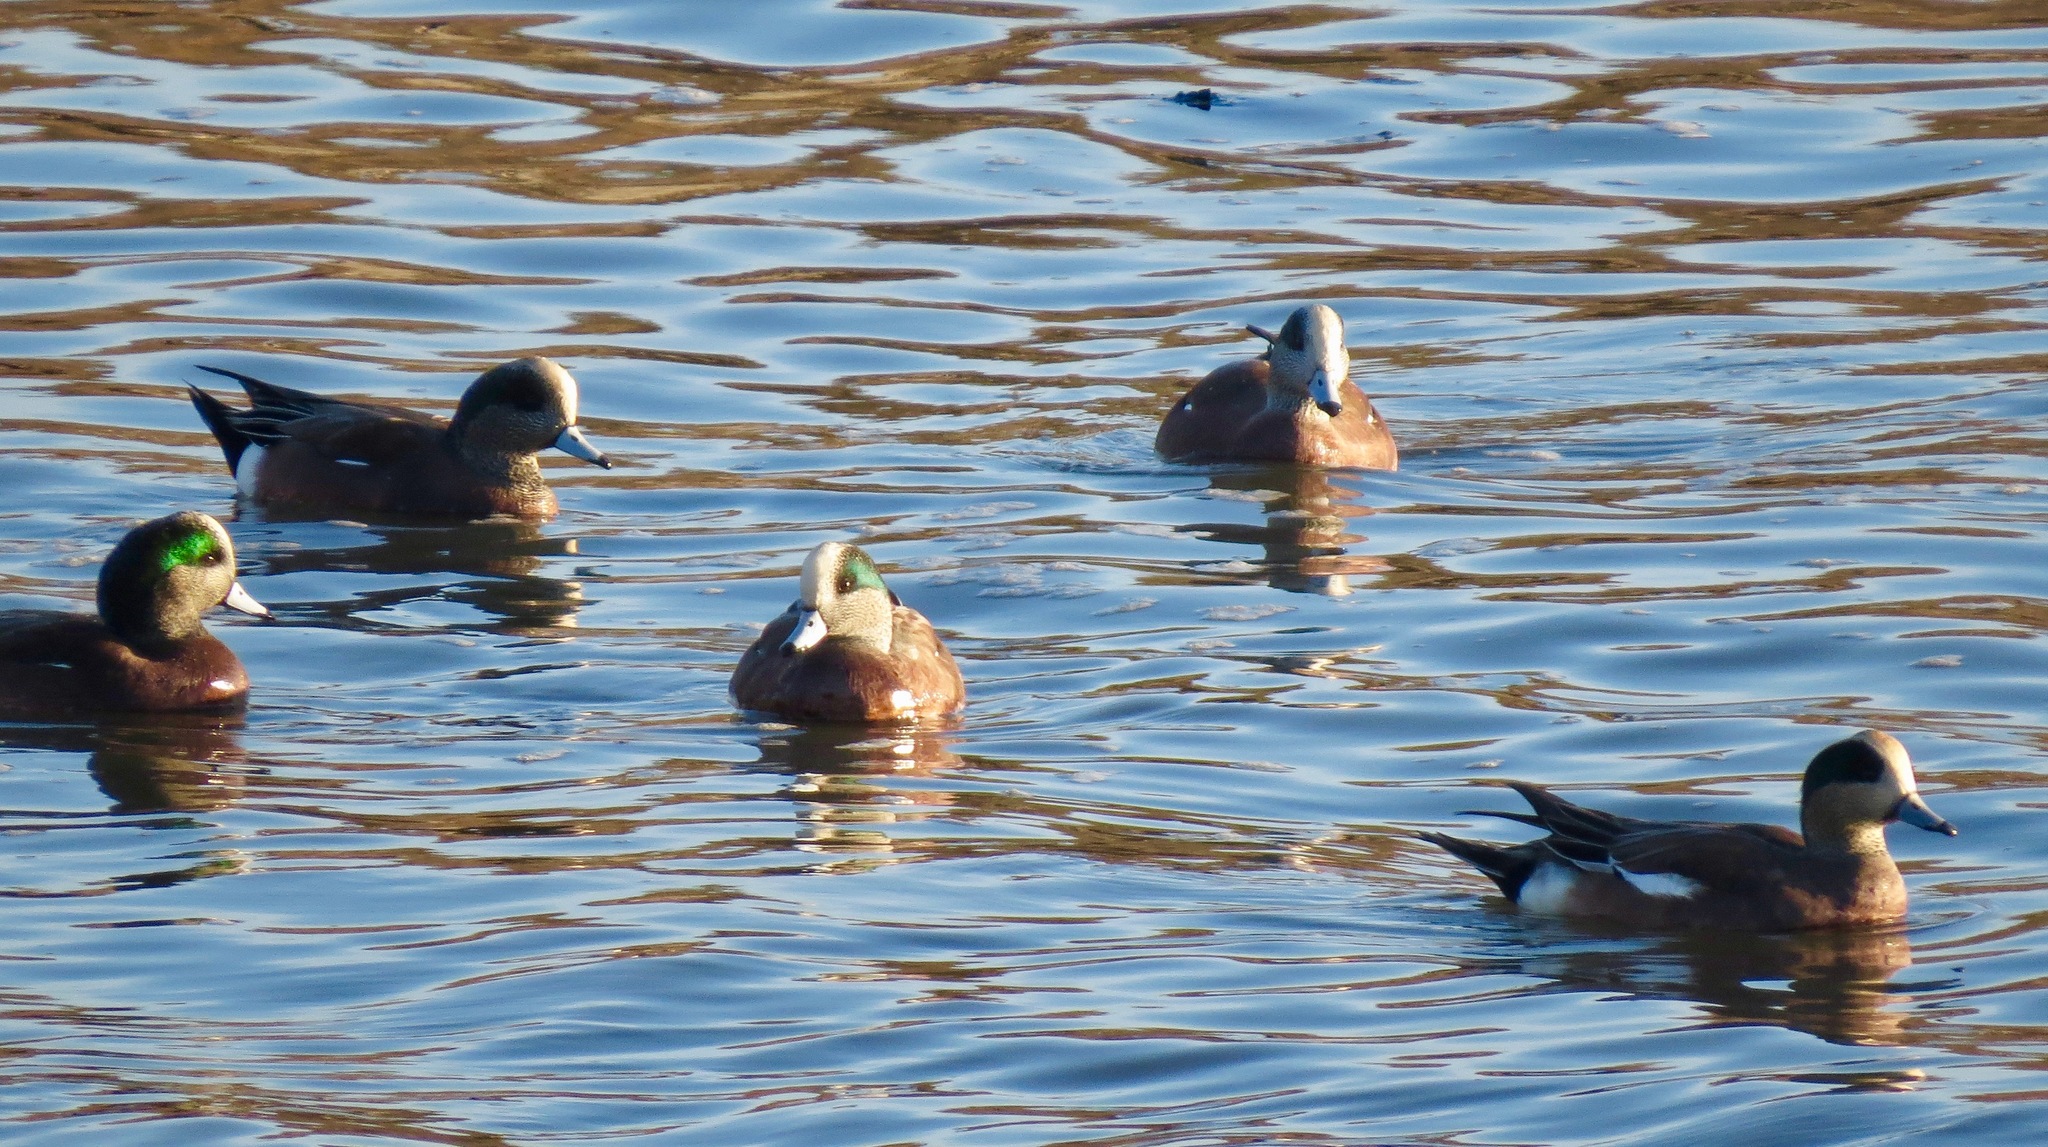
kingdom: Animalia
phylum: Chordata
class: Aves
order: Anseriformes
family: Anatidae
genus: Mareca
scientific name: Mareca americana
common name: American wigeon
